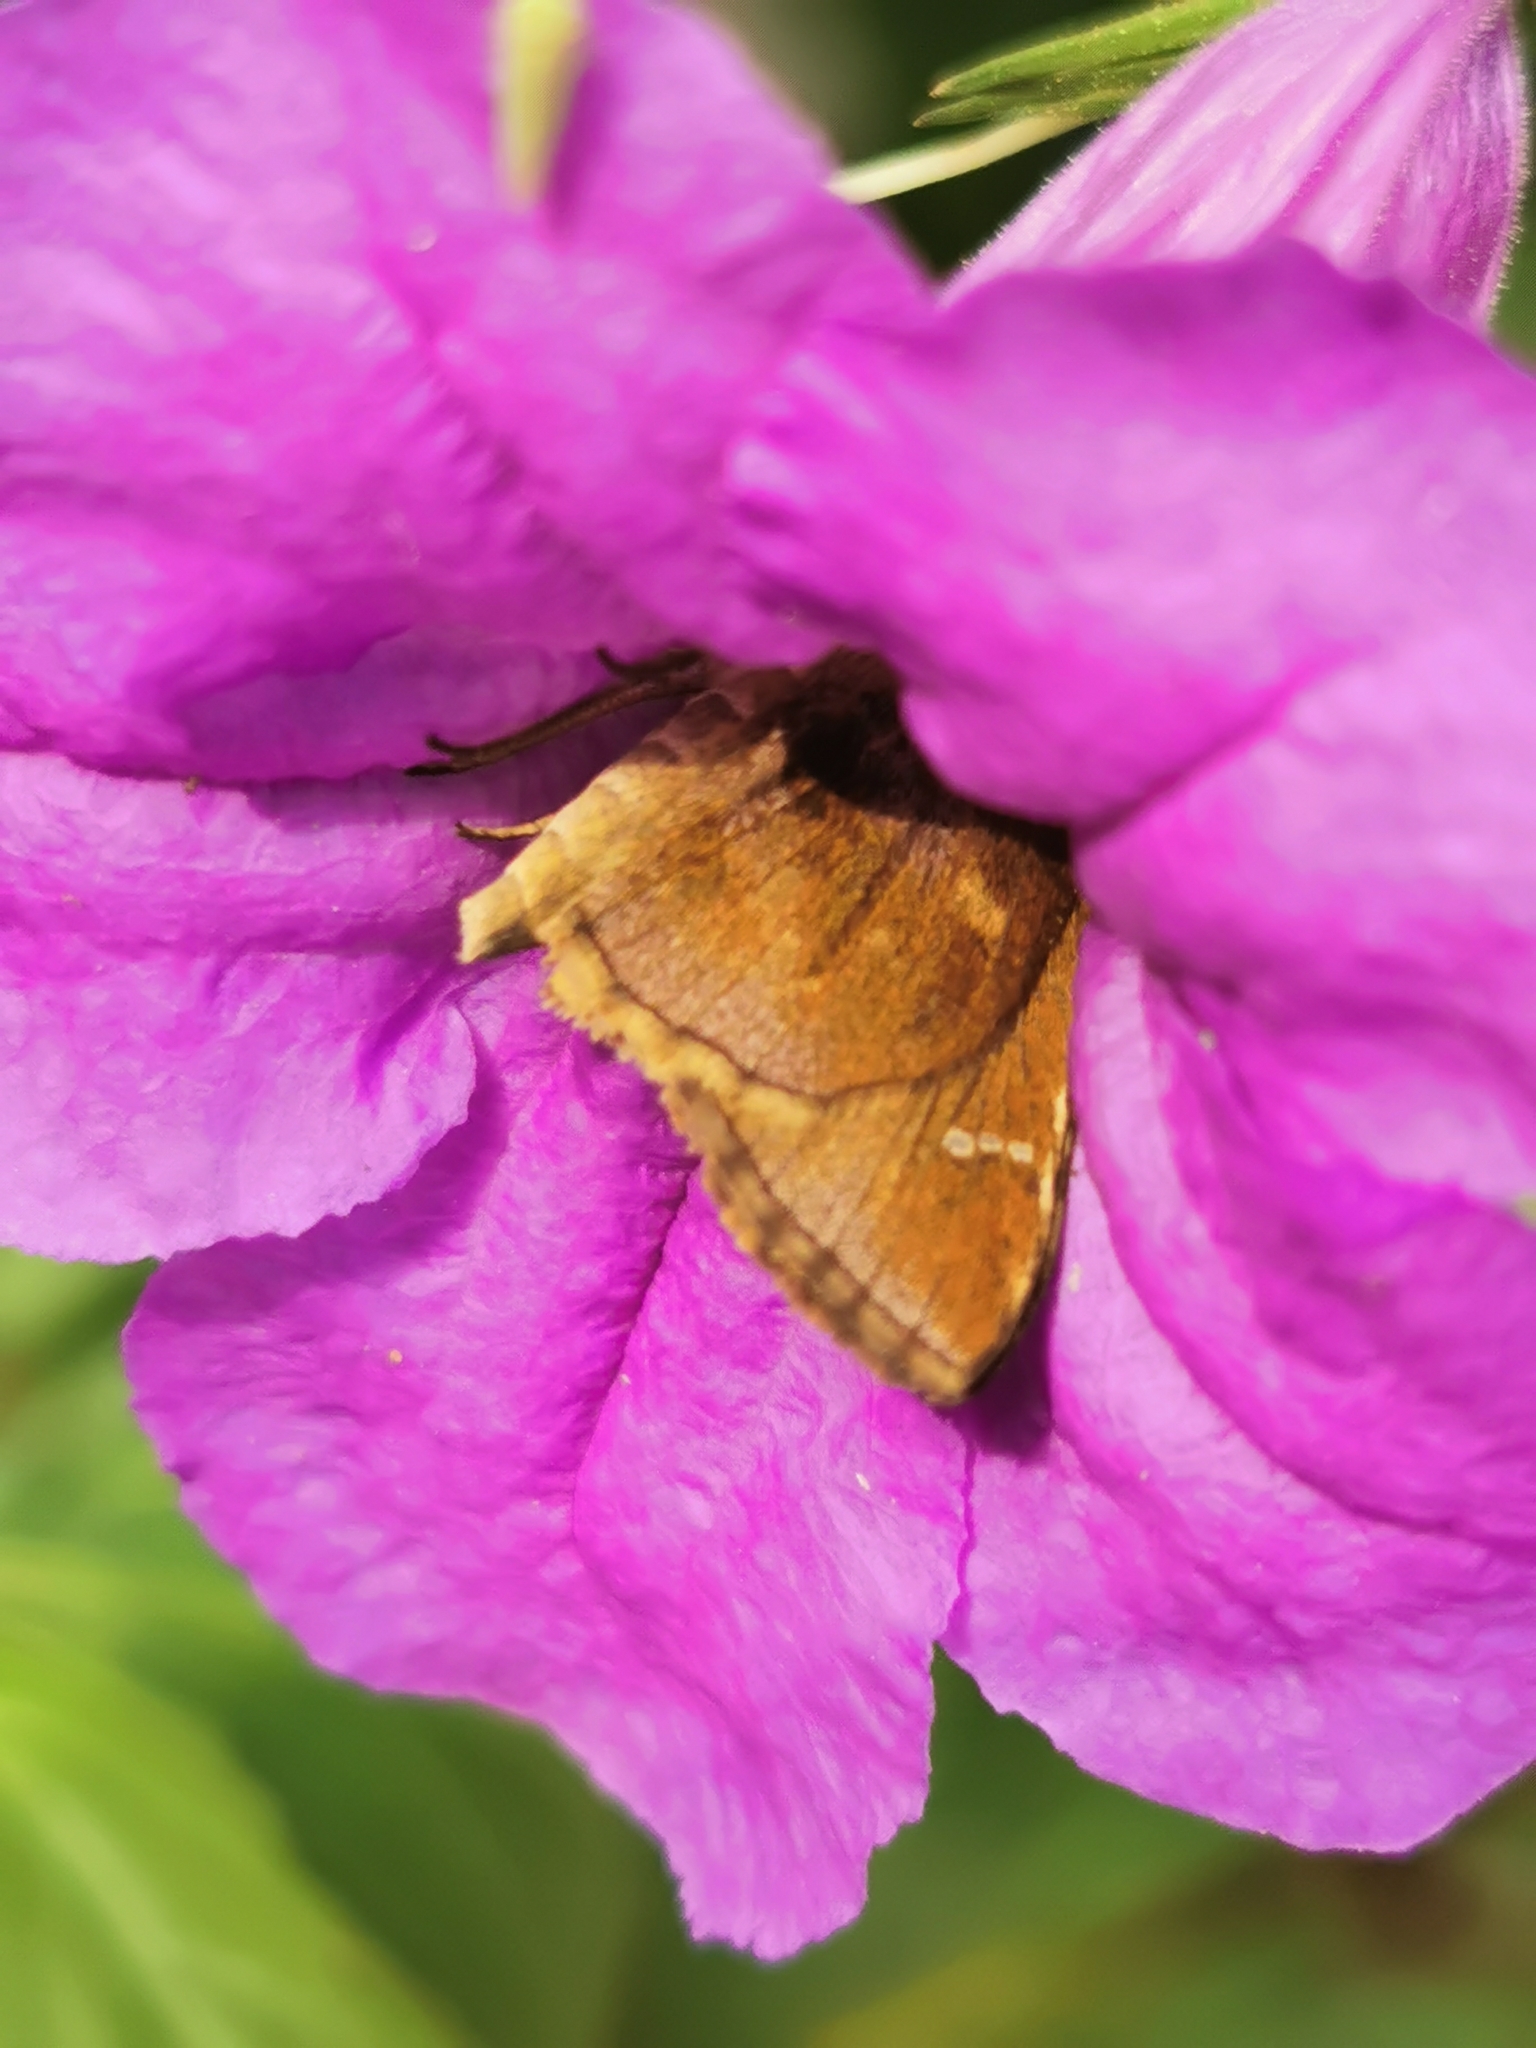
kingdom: Animalia
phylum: Arthropoda
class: Insecta
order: Lepidoptera
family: Hesperiidae
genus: Lerema
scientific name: Lerema accius
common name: Clouded skipper
